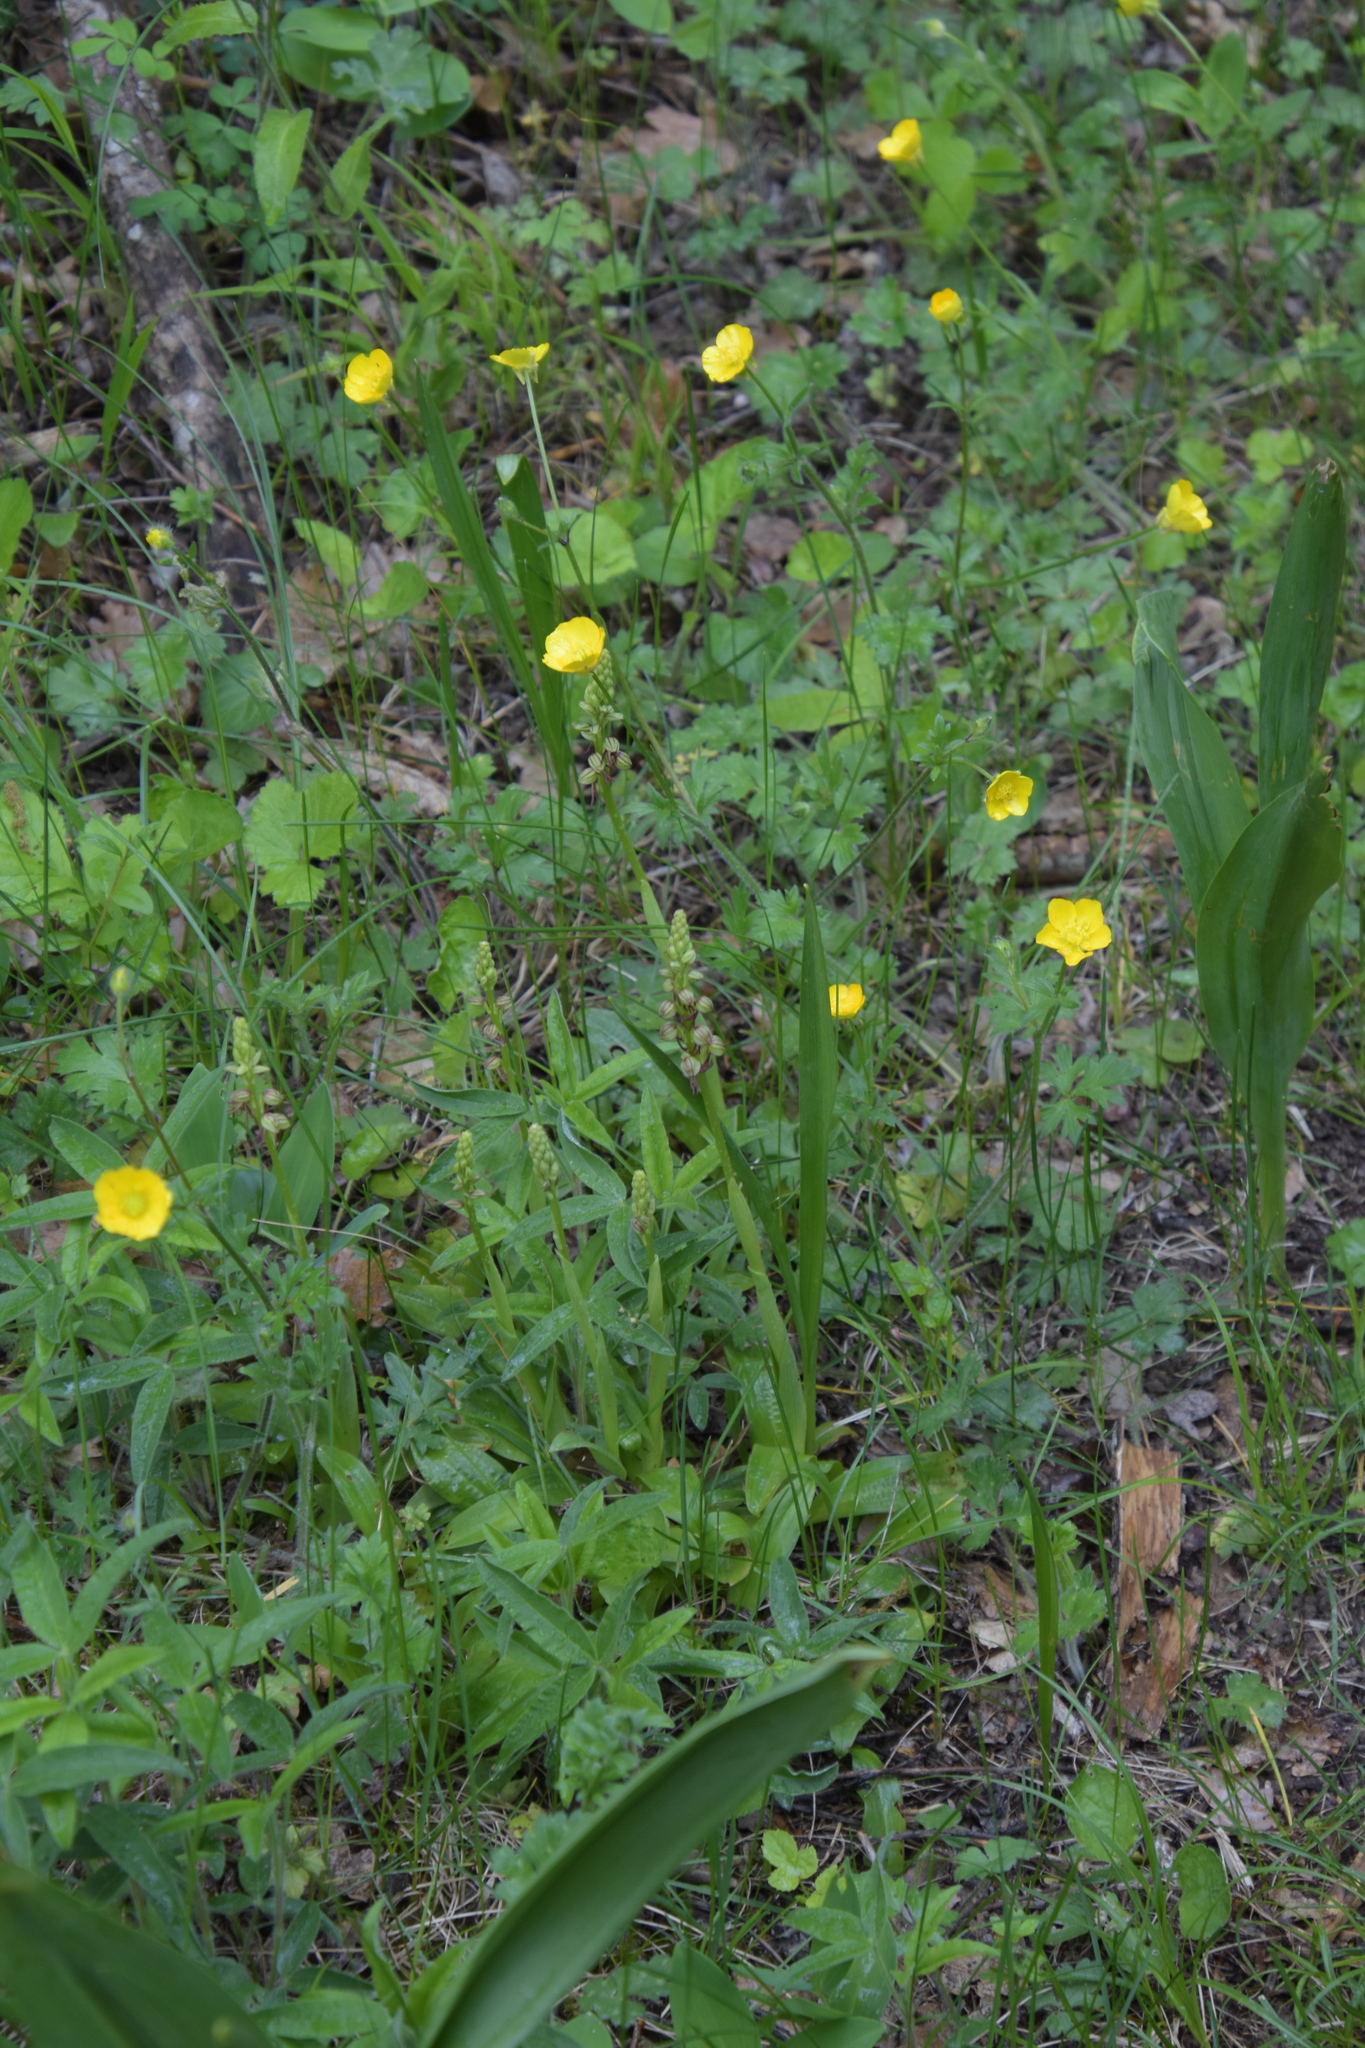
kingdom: Plantae
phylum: Tracheophyta
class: Liliopsida
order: Asparagales
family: Orchidaceae
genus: Orchis
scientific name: Orchis anthropophora
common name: Man orchid
